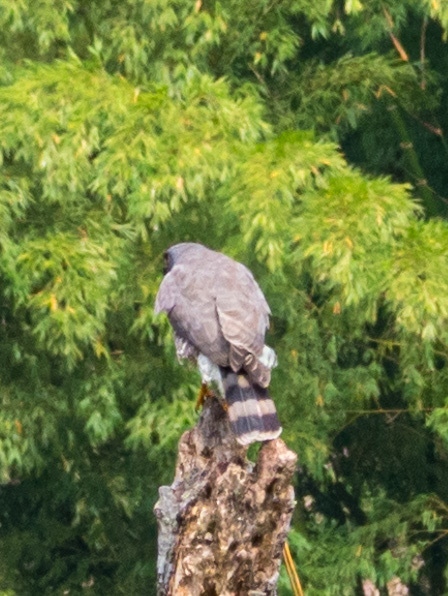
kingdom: Animalia
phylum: Chordata
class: Aves
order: Accipitriformes
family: Accipitridae
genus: Rupornis
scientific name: Rupornis magnirostris
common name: Roadside hawk
